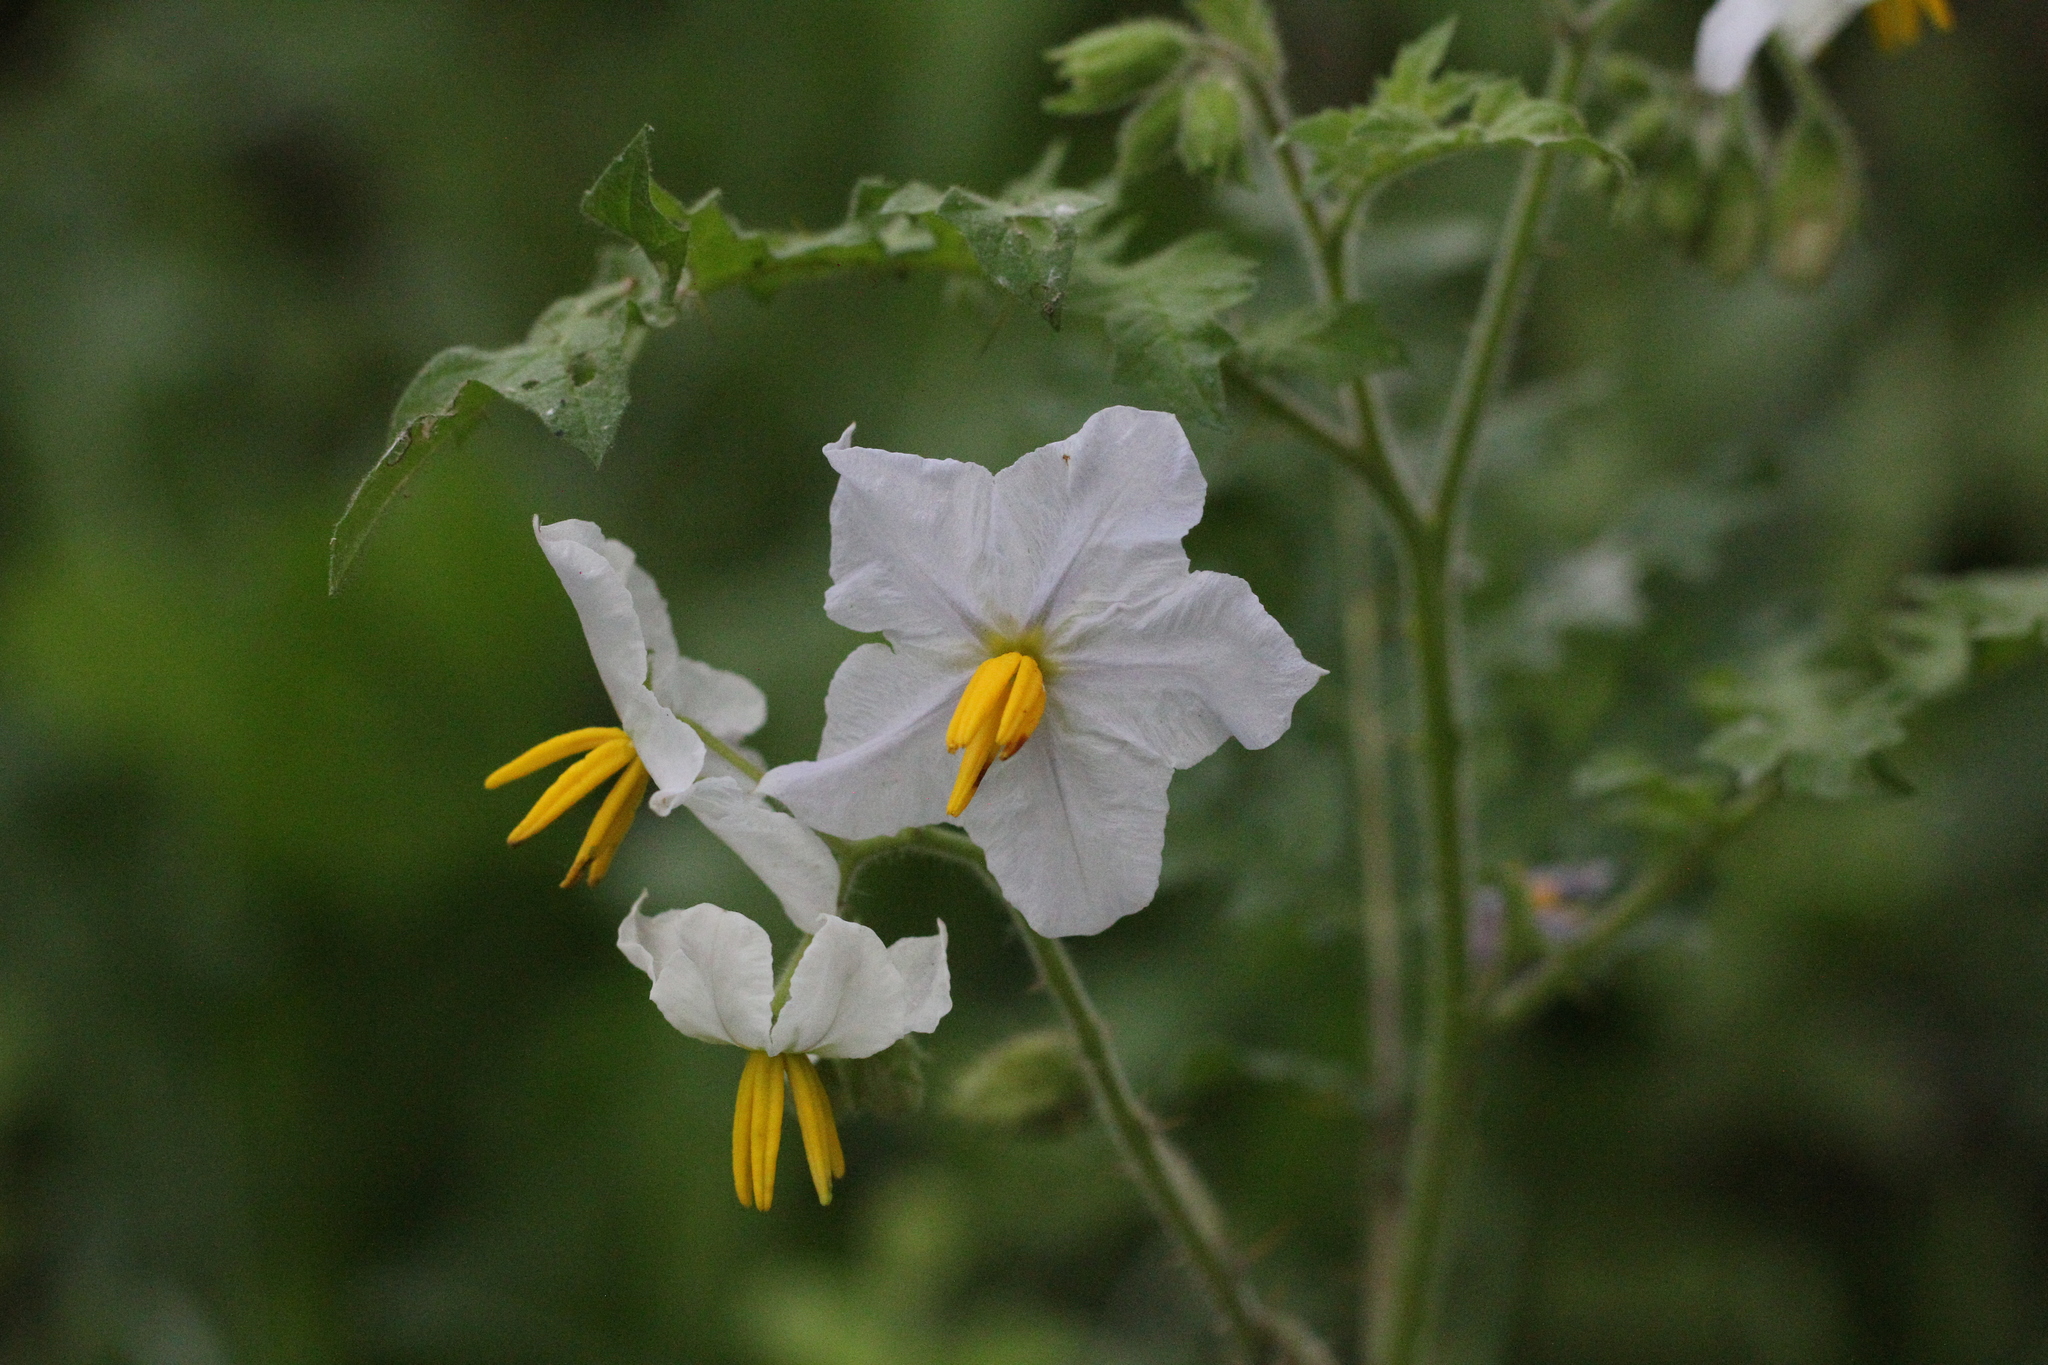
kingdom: Plantae
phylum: Tracheophyta
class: Magnoliopsida
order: Solanales
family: Solanaceae
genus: Solanum
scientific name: Solanum sisymbriifolium
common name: Red buffalo-bur
